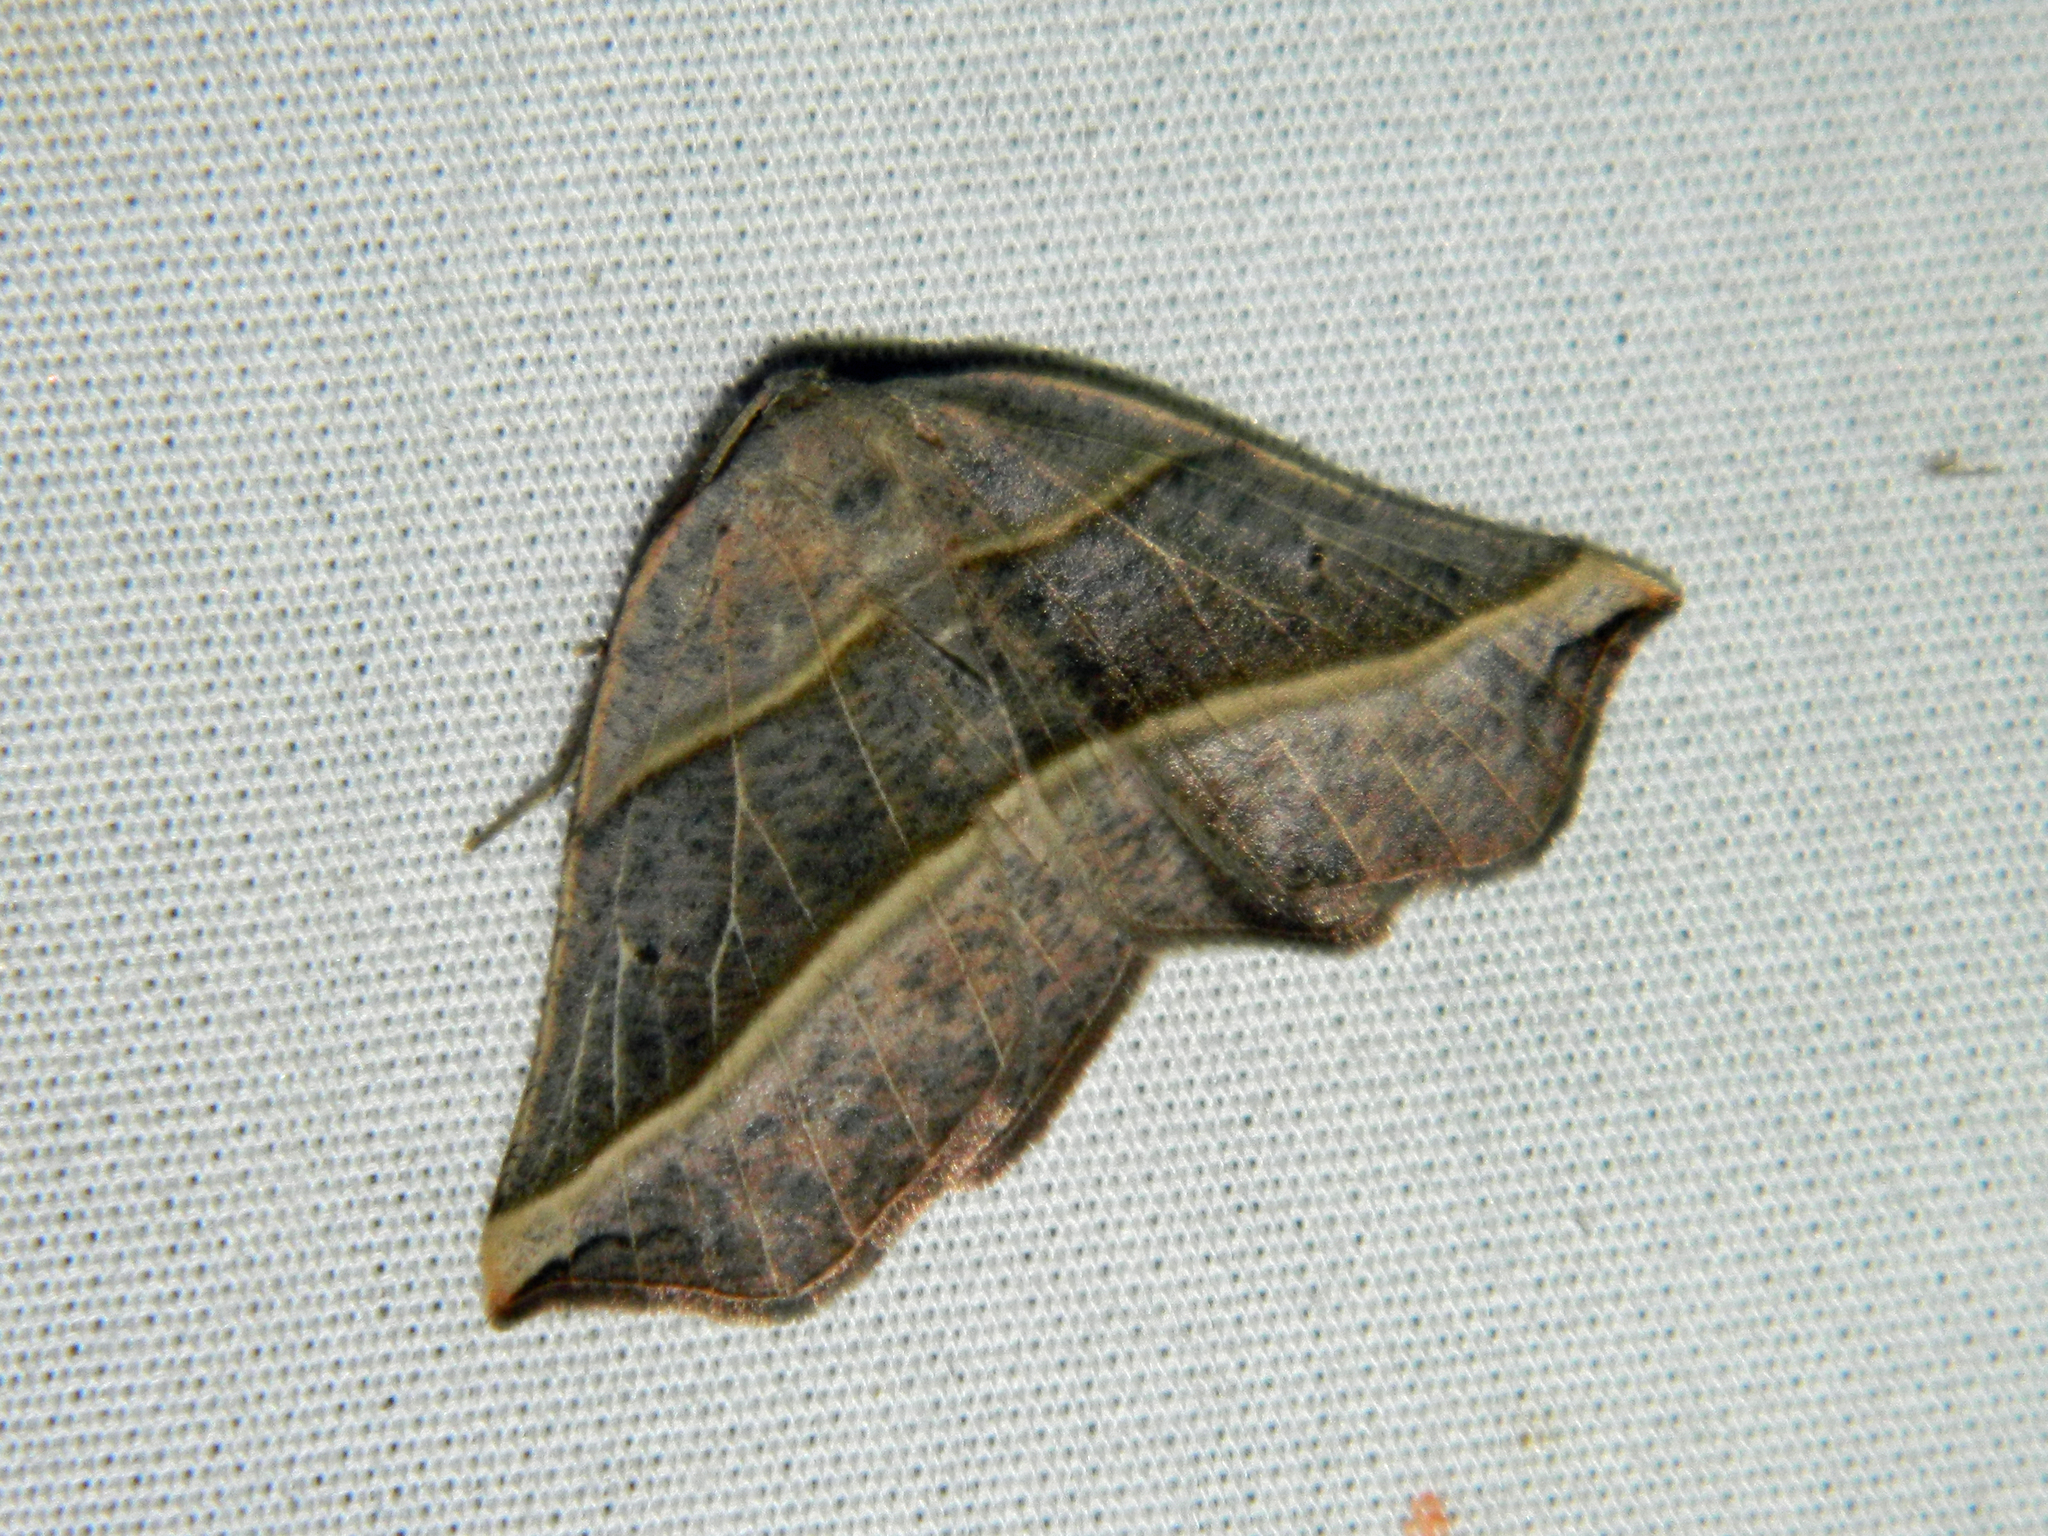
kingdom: Animalia
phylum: Arthropoda
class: Insecta
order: Lepidoptera
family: Geometridae
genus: Metanema
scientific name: Metanema determinata
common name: Dark metanema
